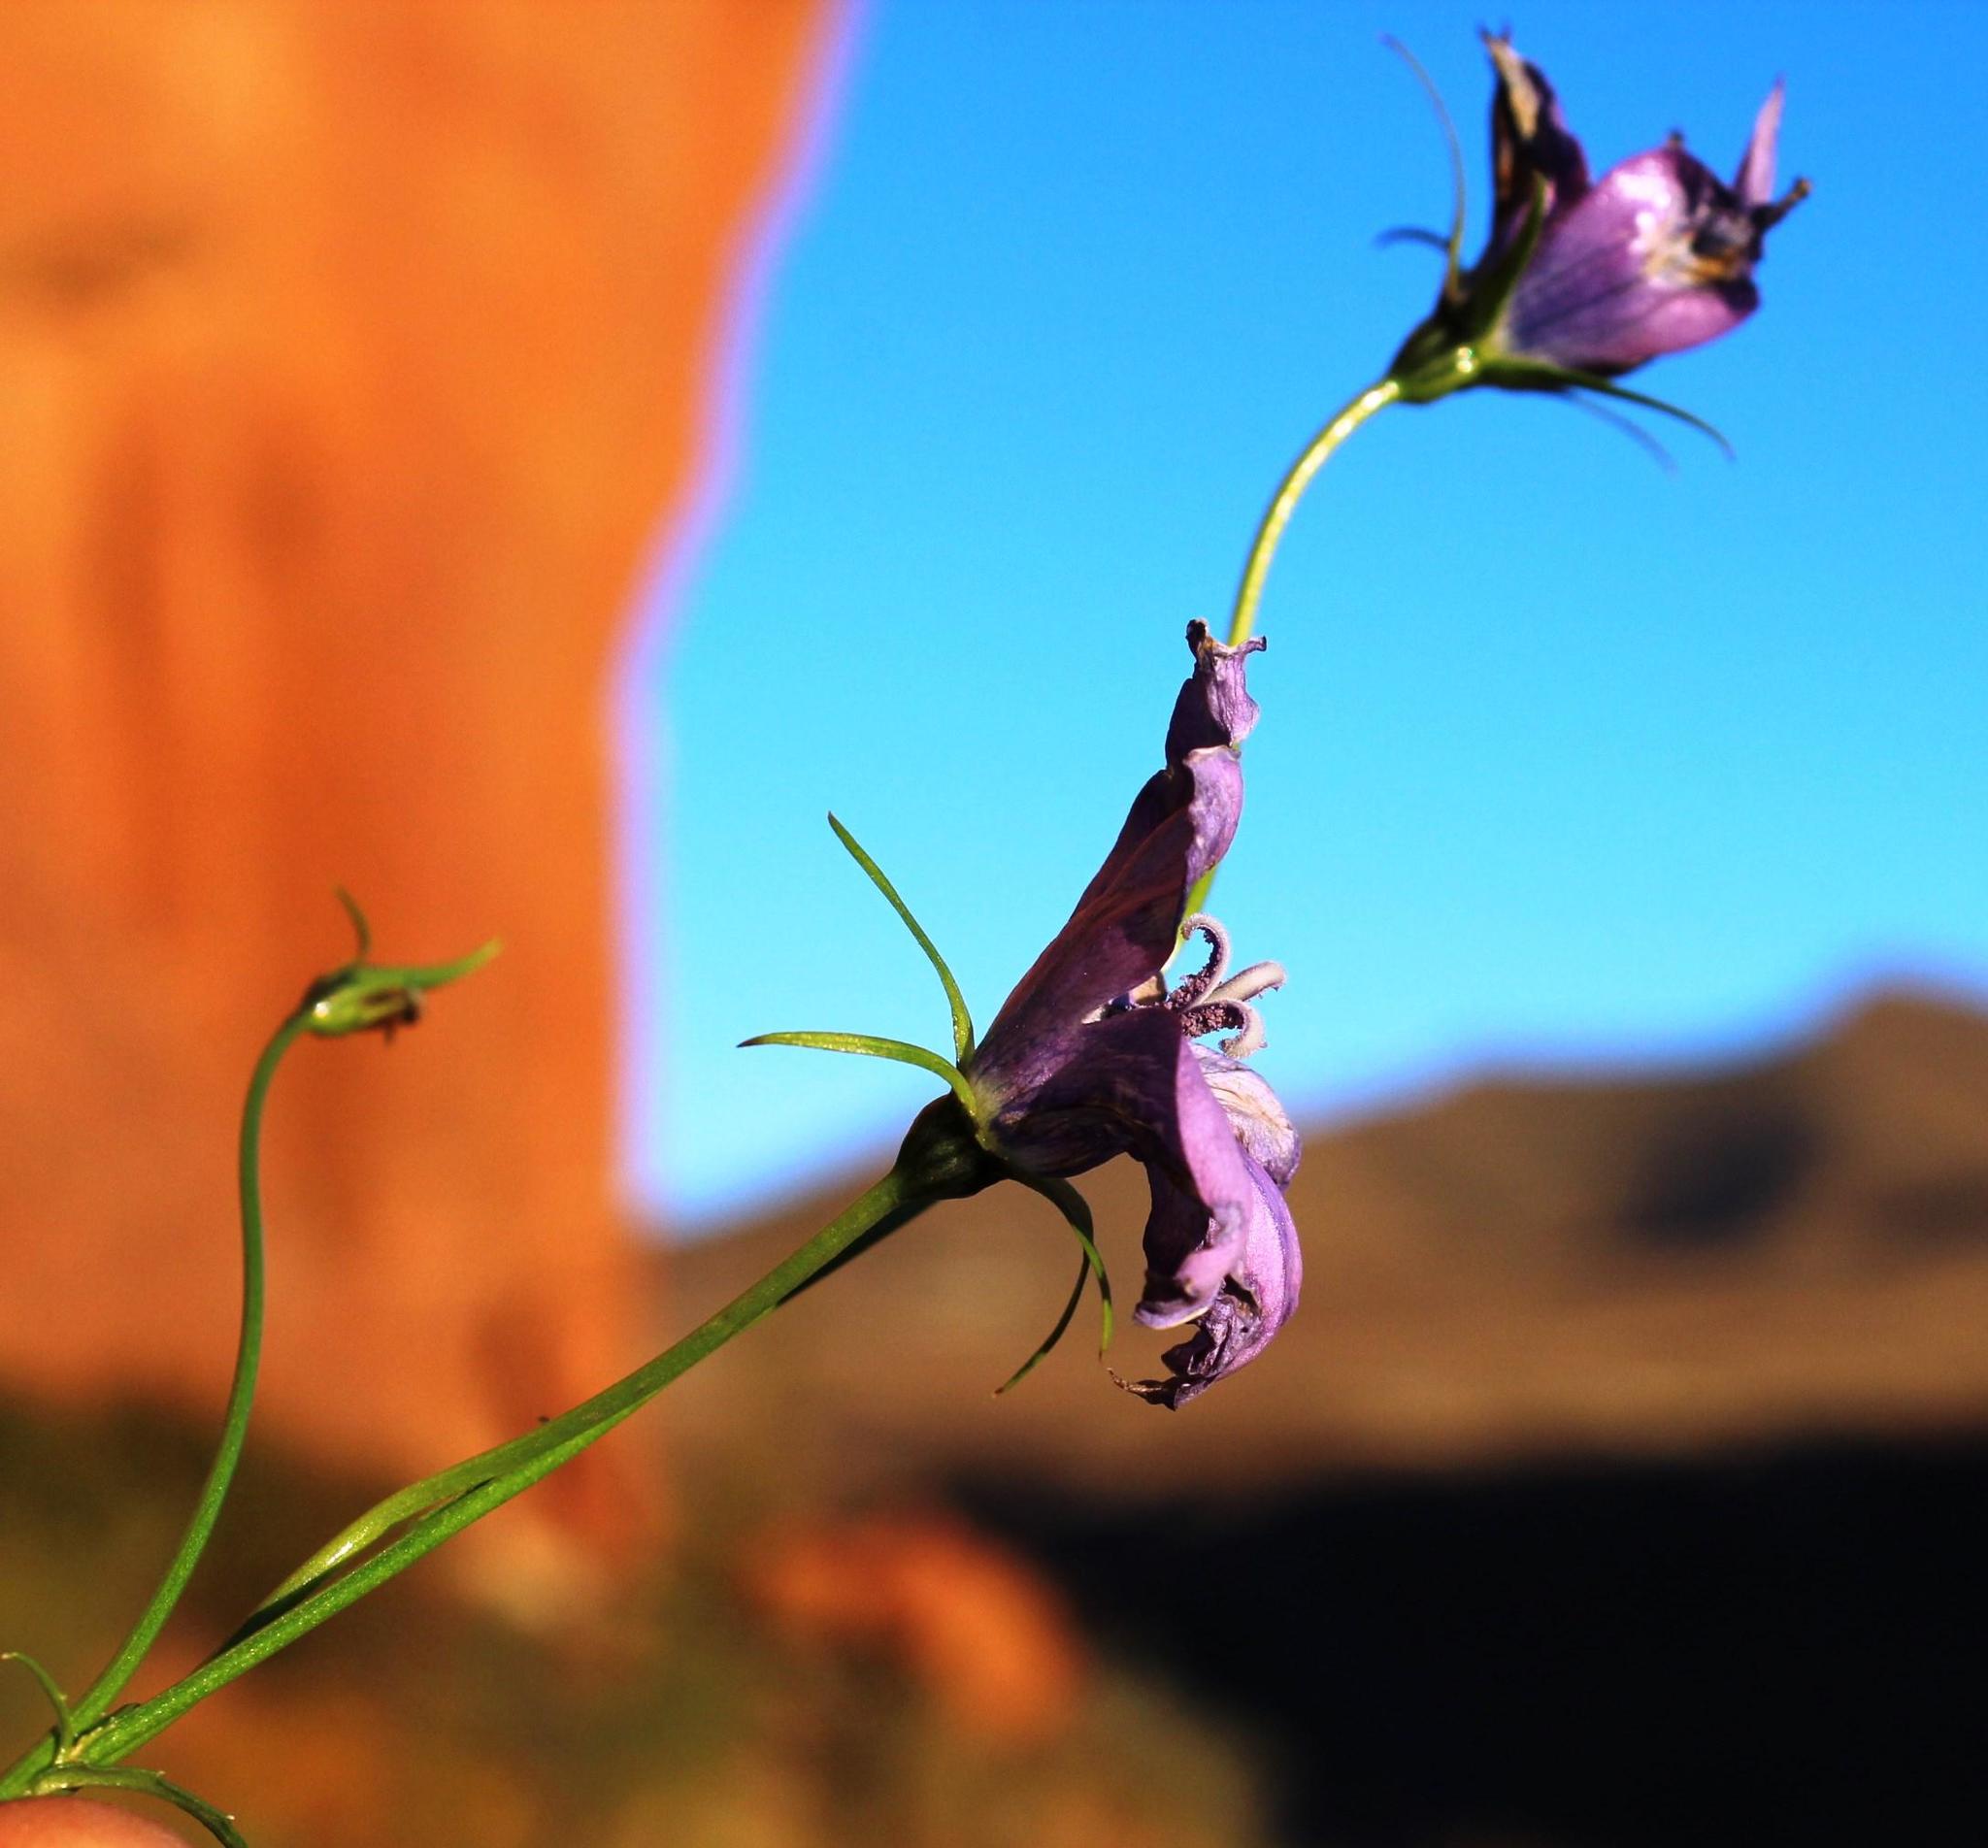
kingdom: Plantae
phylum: Tracheophyta
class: Magnoliopsida
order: Asterales
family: Campanulaceae
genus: Wahlenbergia
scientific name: Wahlenbergia cuspidata
